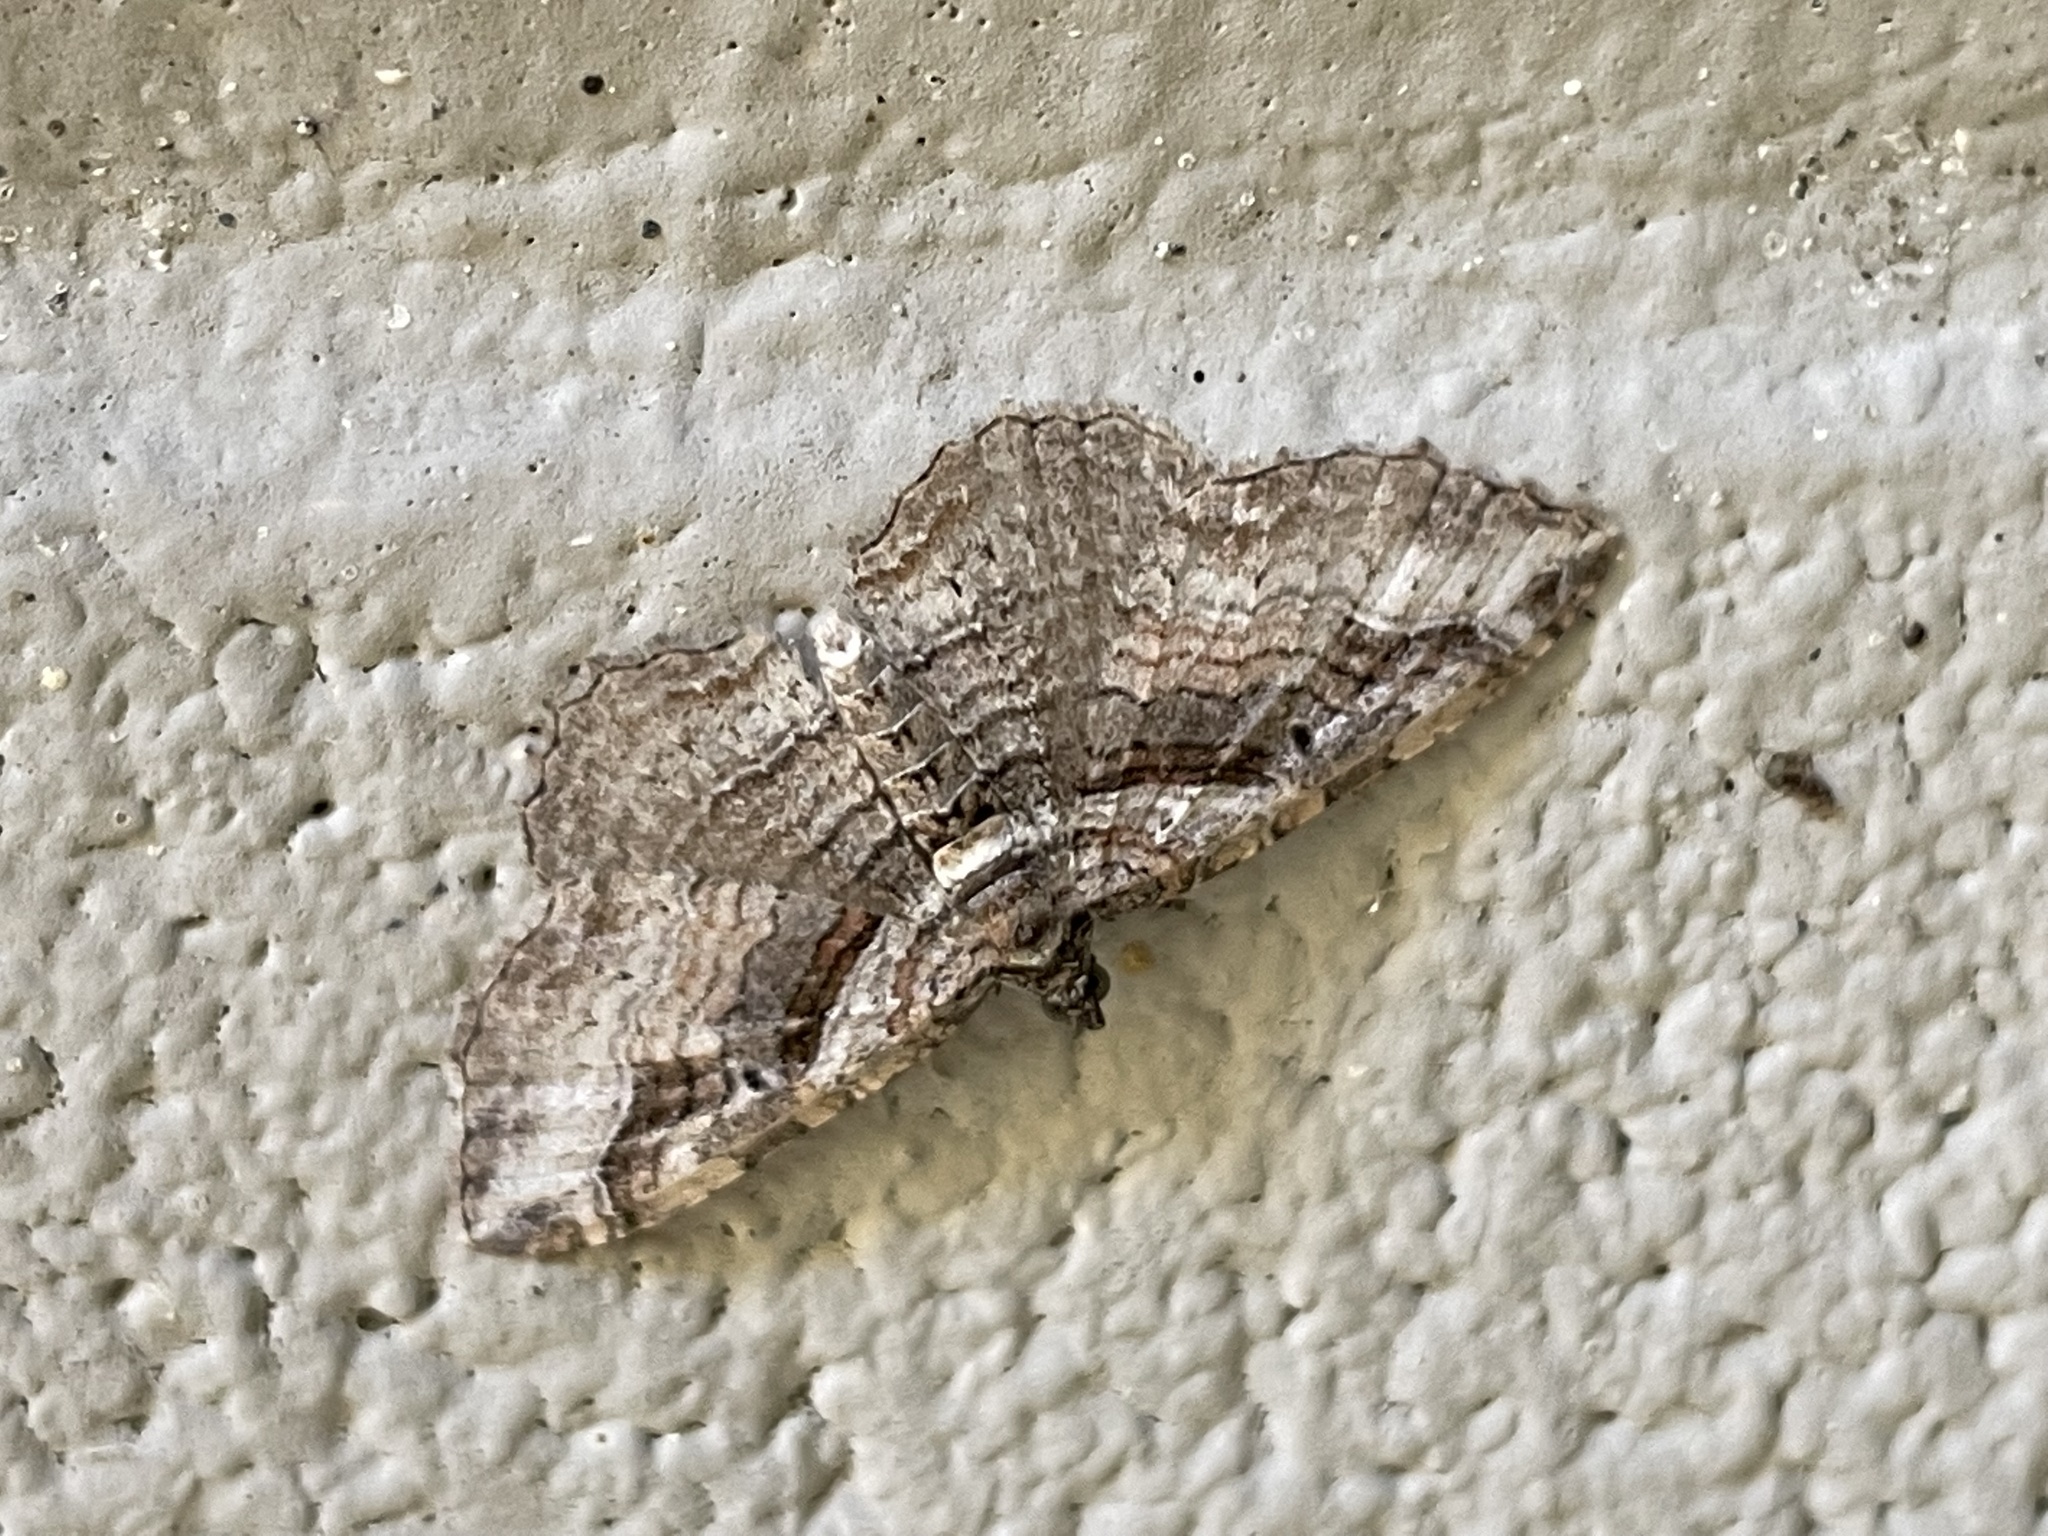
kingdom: Animalia
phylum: Arthropoda
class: Insecta
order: Lepidoptera
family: Geometridae
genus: Costaconvexa
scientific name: Costaconvexa centrostrigaria
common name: Bent-line carpet
